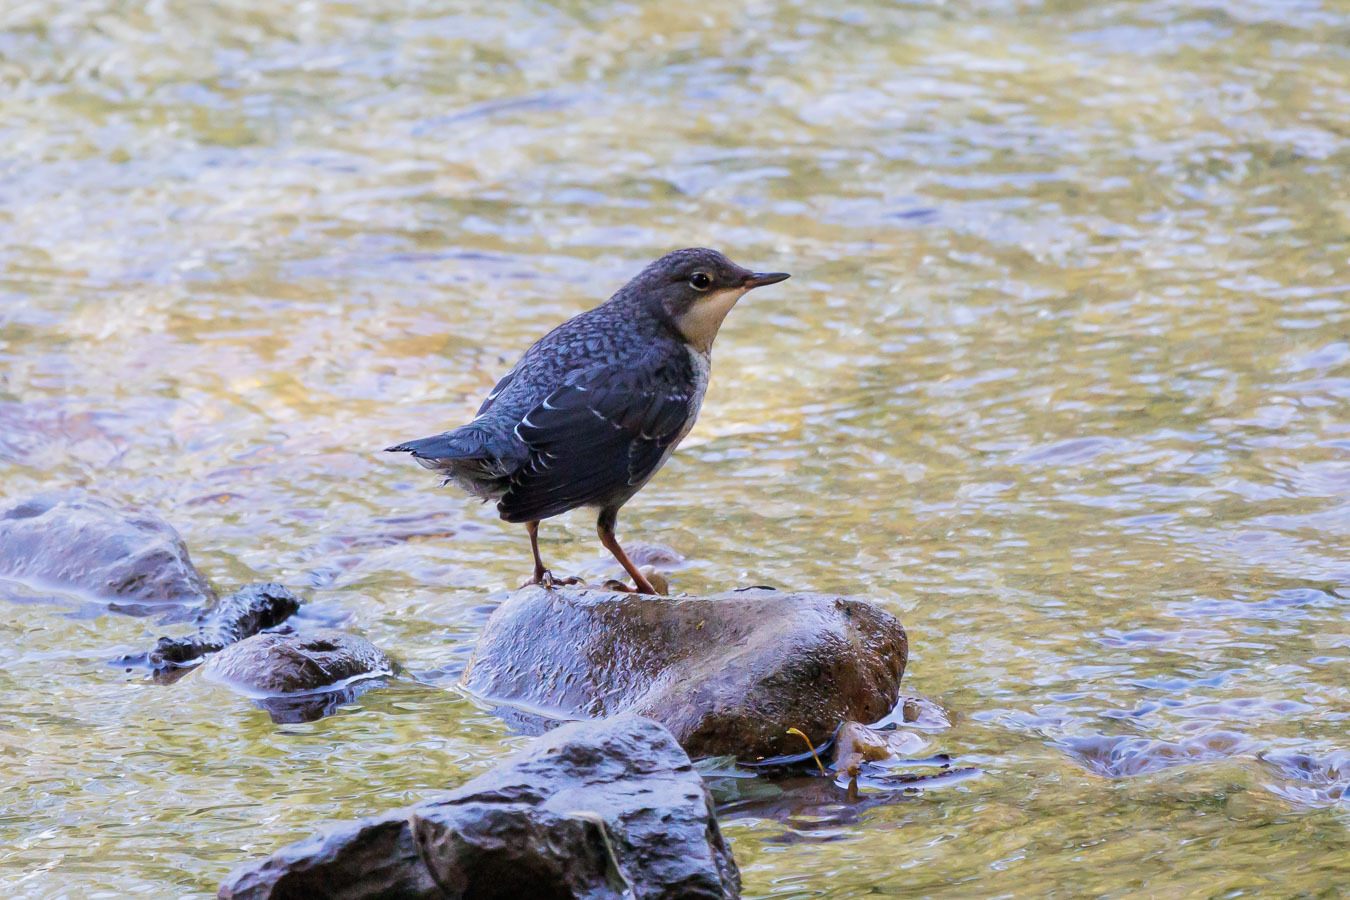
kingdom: Animalia
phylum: Chordata
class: Aves
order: Passeriformes
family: Cinclidae
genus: Cinclus
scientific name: Cinclus cinclus
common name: White-throated dipper
